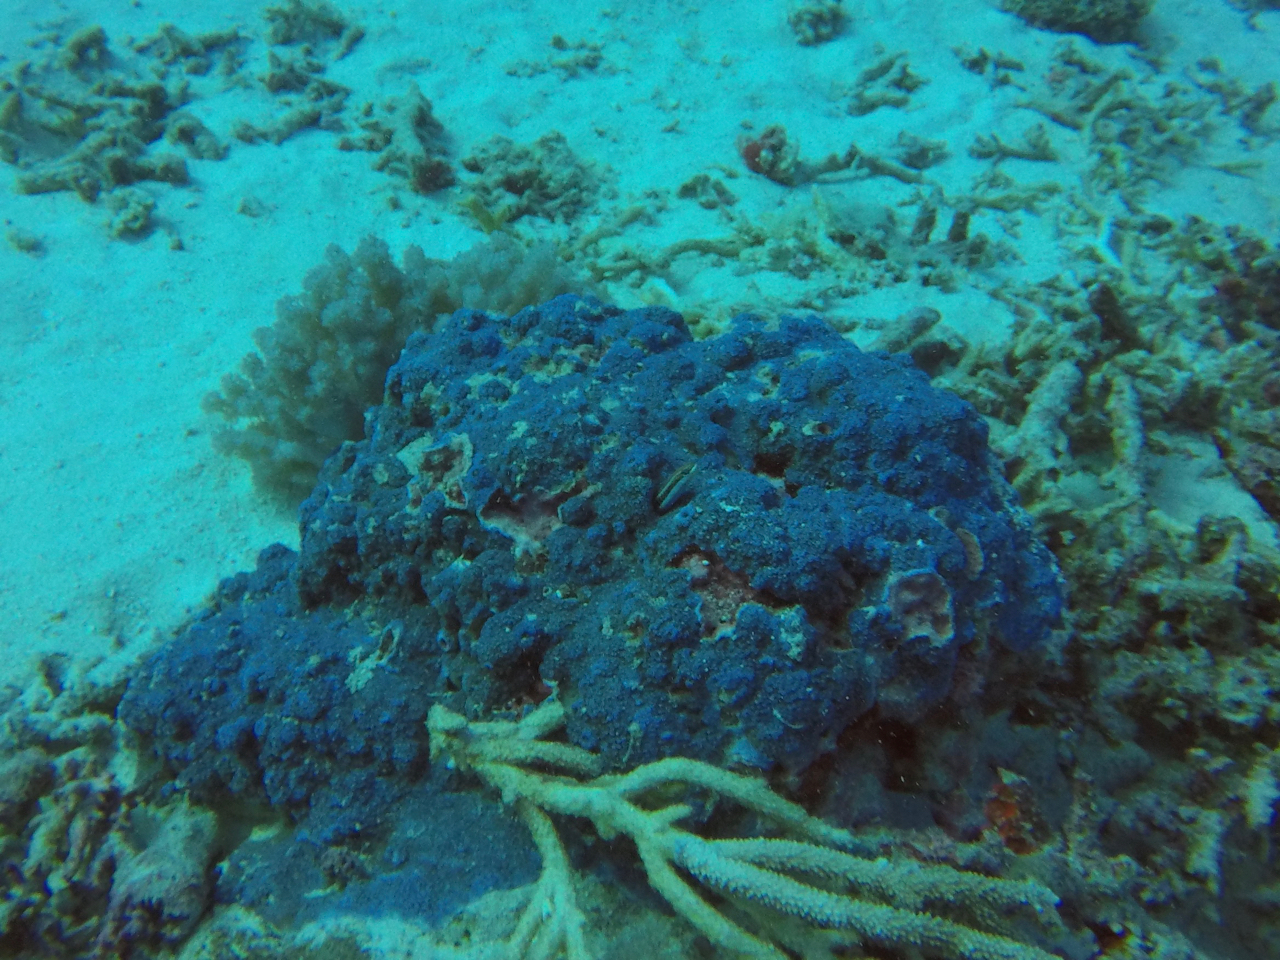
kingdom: Animalia
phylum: Chordata
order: Perciformes
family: Blenniidae
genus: Plagiotremus
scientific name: Plagiotremus tapeinosoma
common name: Hit and run blenny
